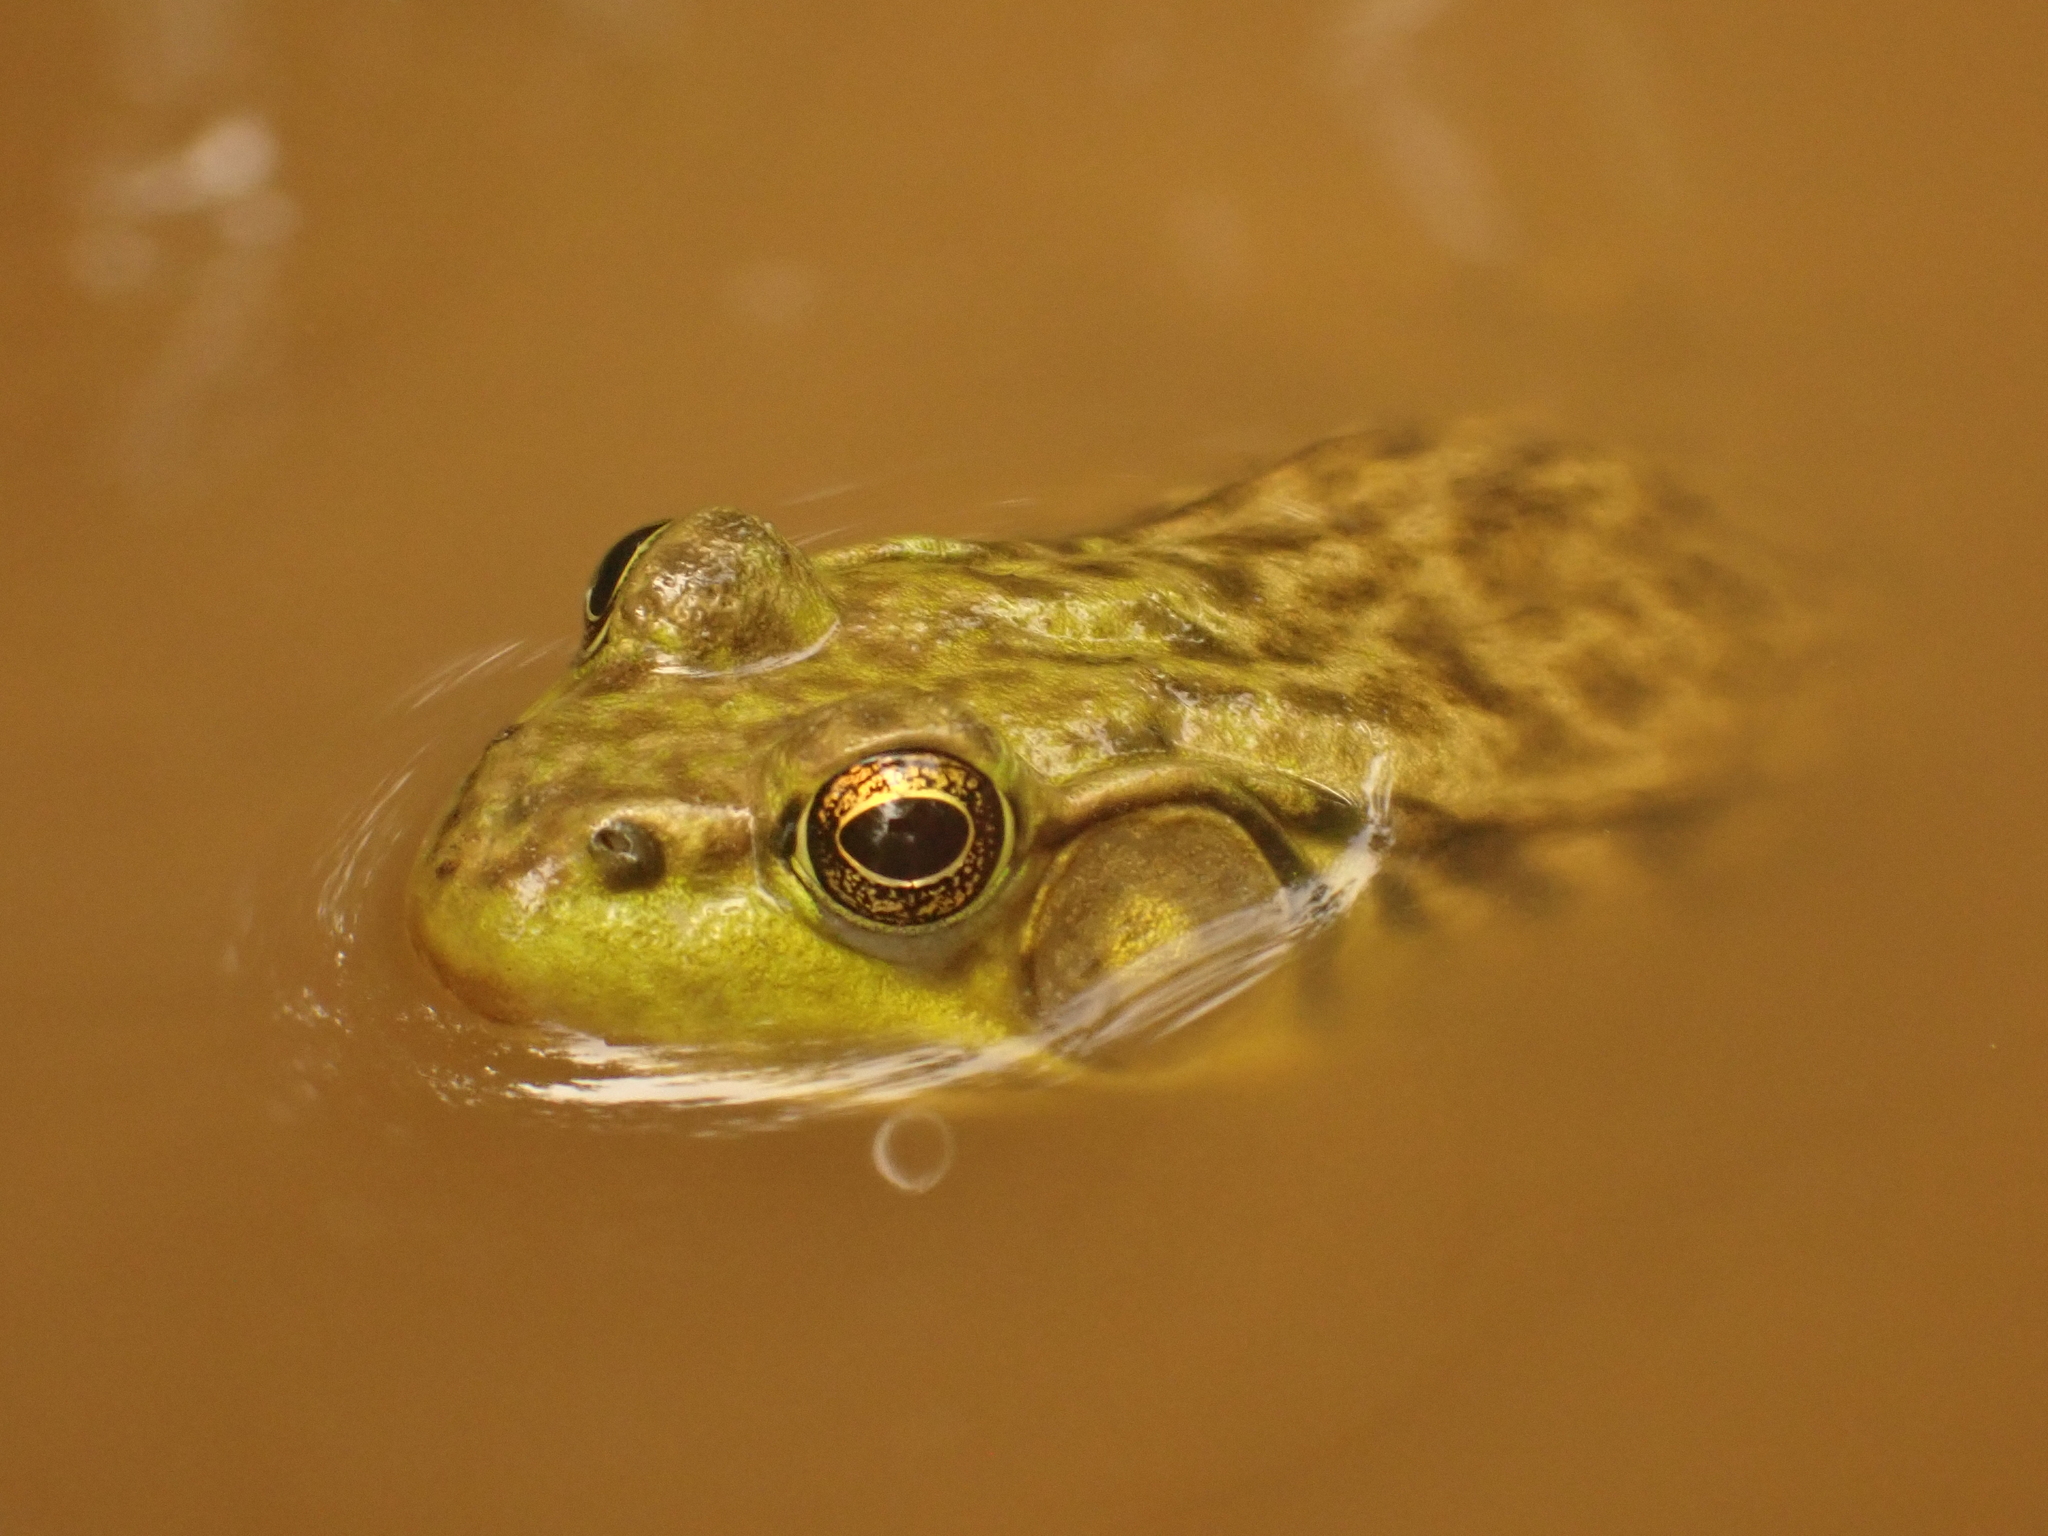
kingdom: Animalia
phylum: Chordata
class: Amphibia
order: Anura
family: Ranidae
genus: Lithobates
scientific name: Lithobates clamitans
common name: Green frog
